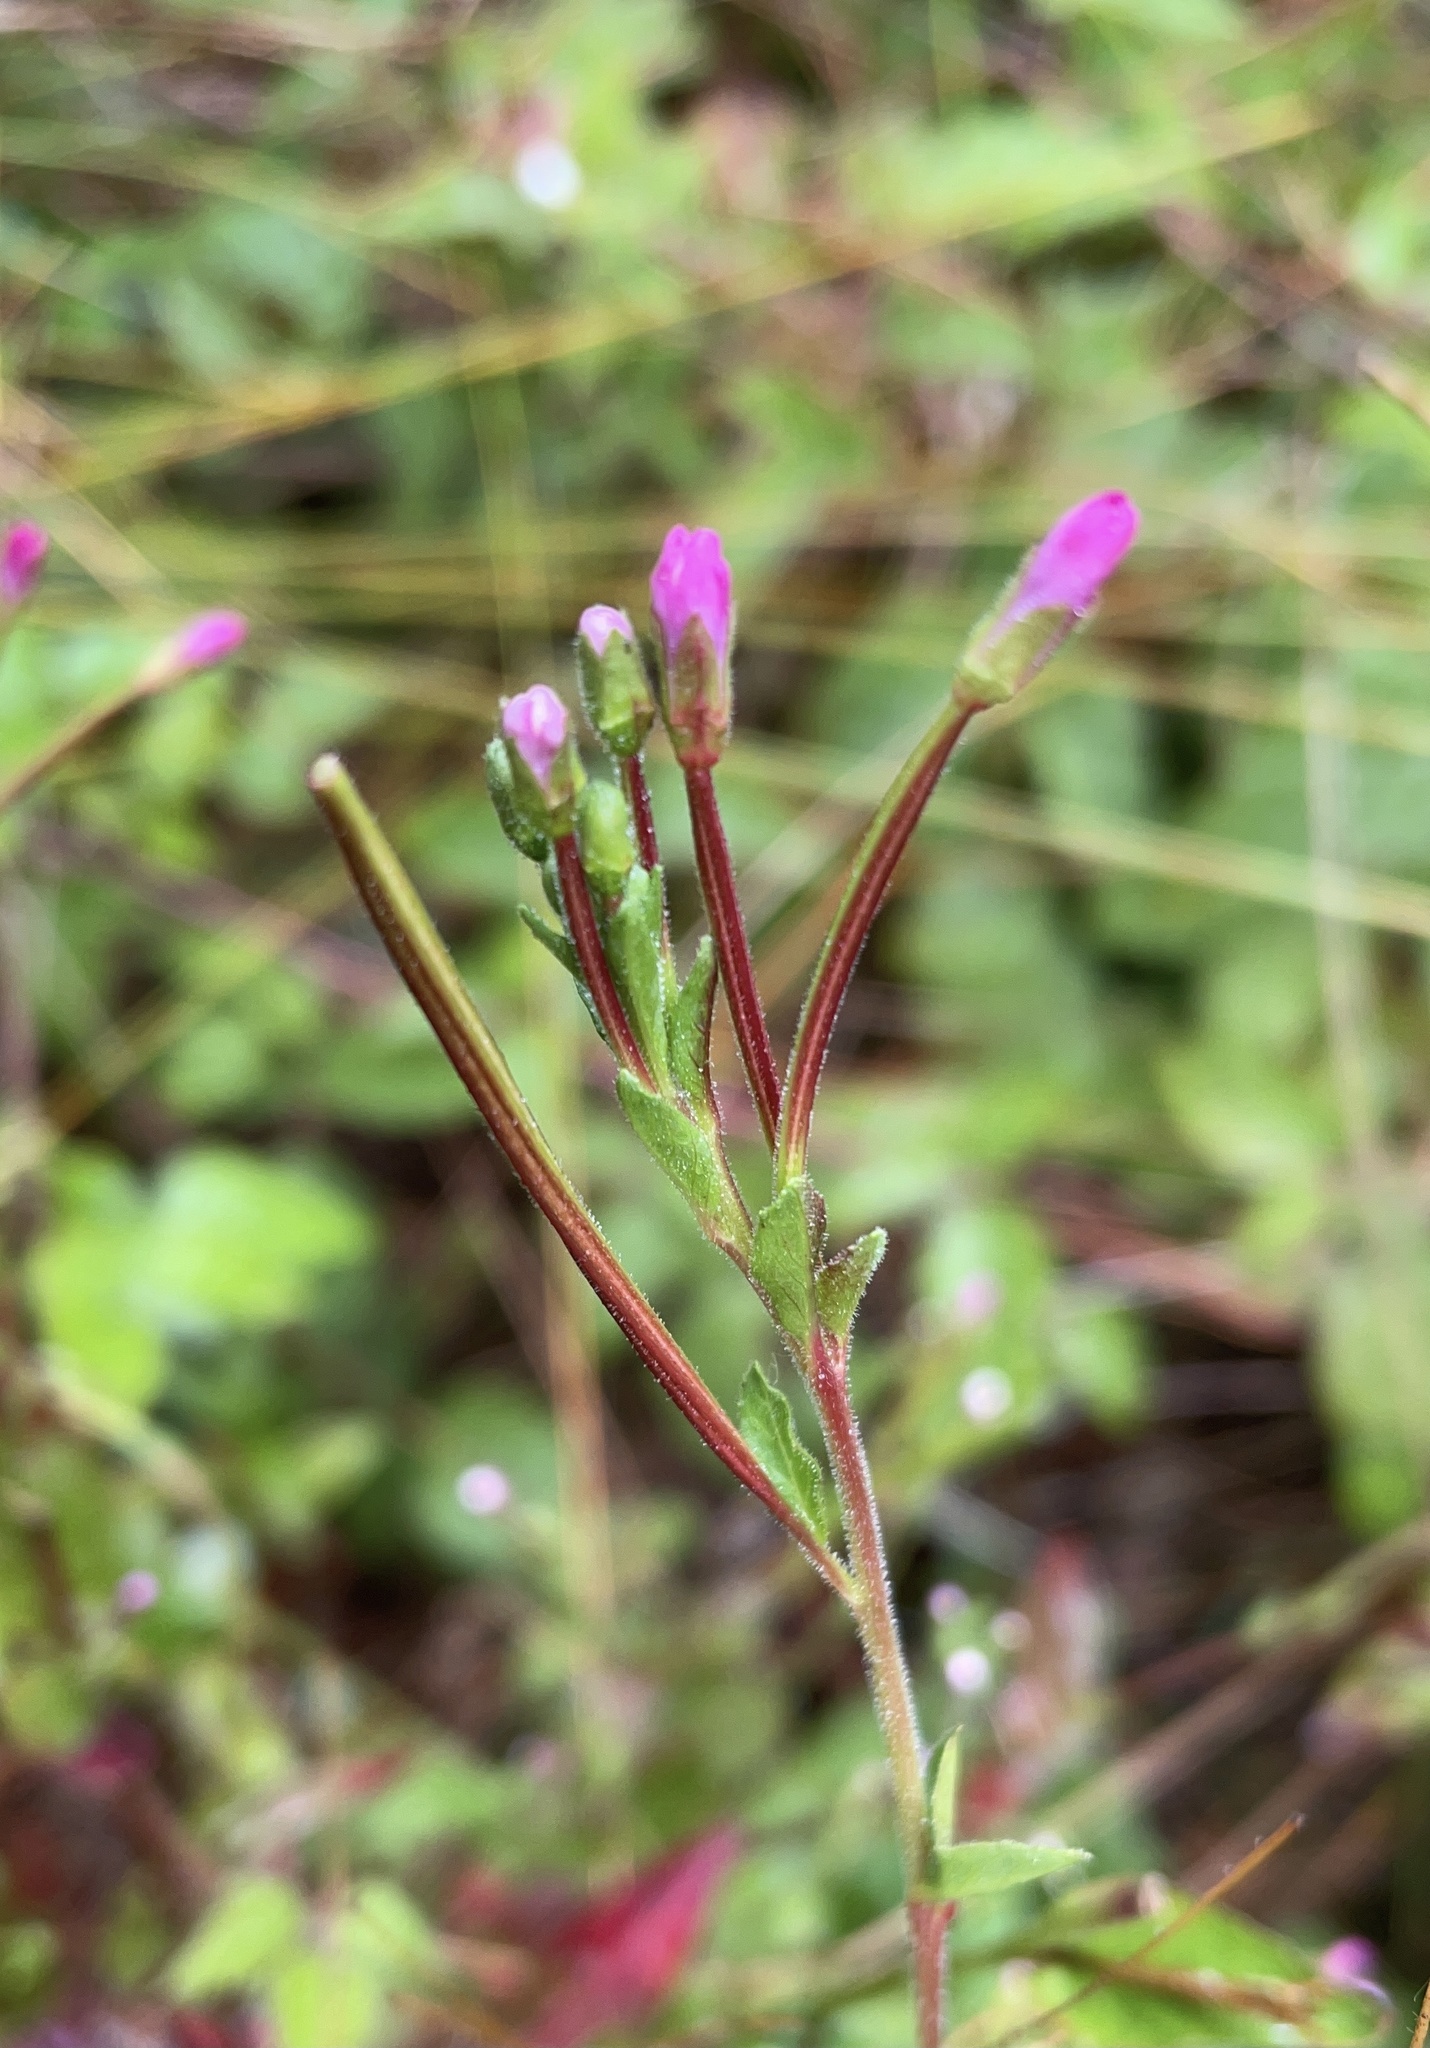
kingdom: Plantae
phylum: Tracheophyta
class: Magnoliopsida
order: Myrtales
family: Onagraceae
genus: Epilobium
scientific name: Epilobium ciliatum
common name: American willowherb
